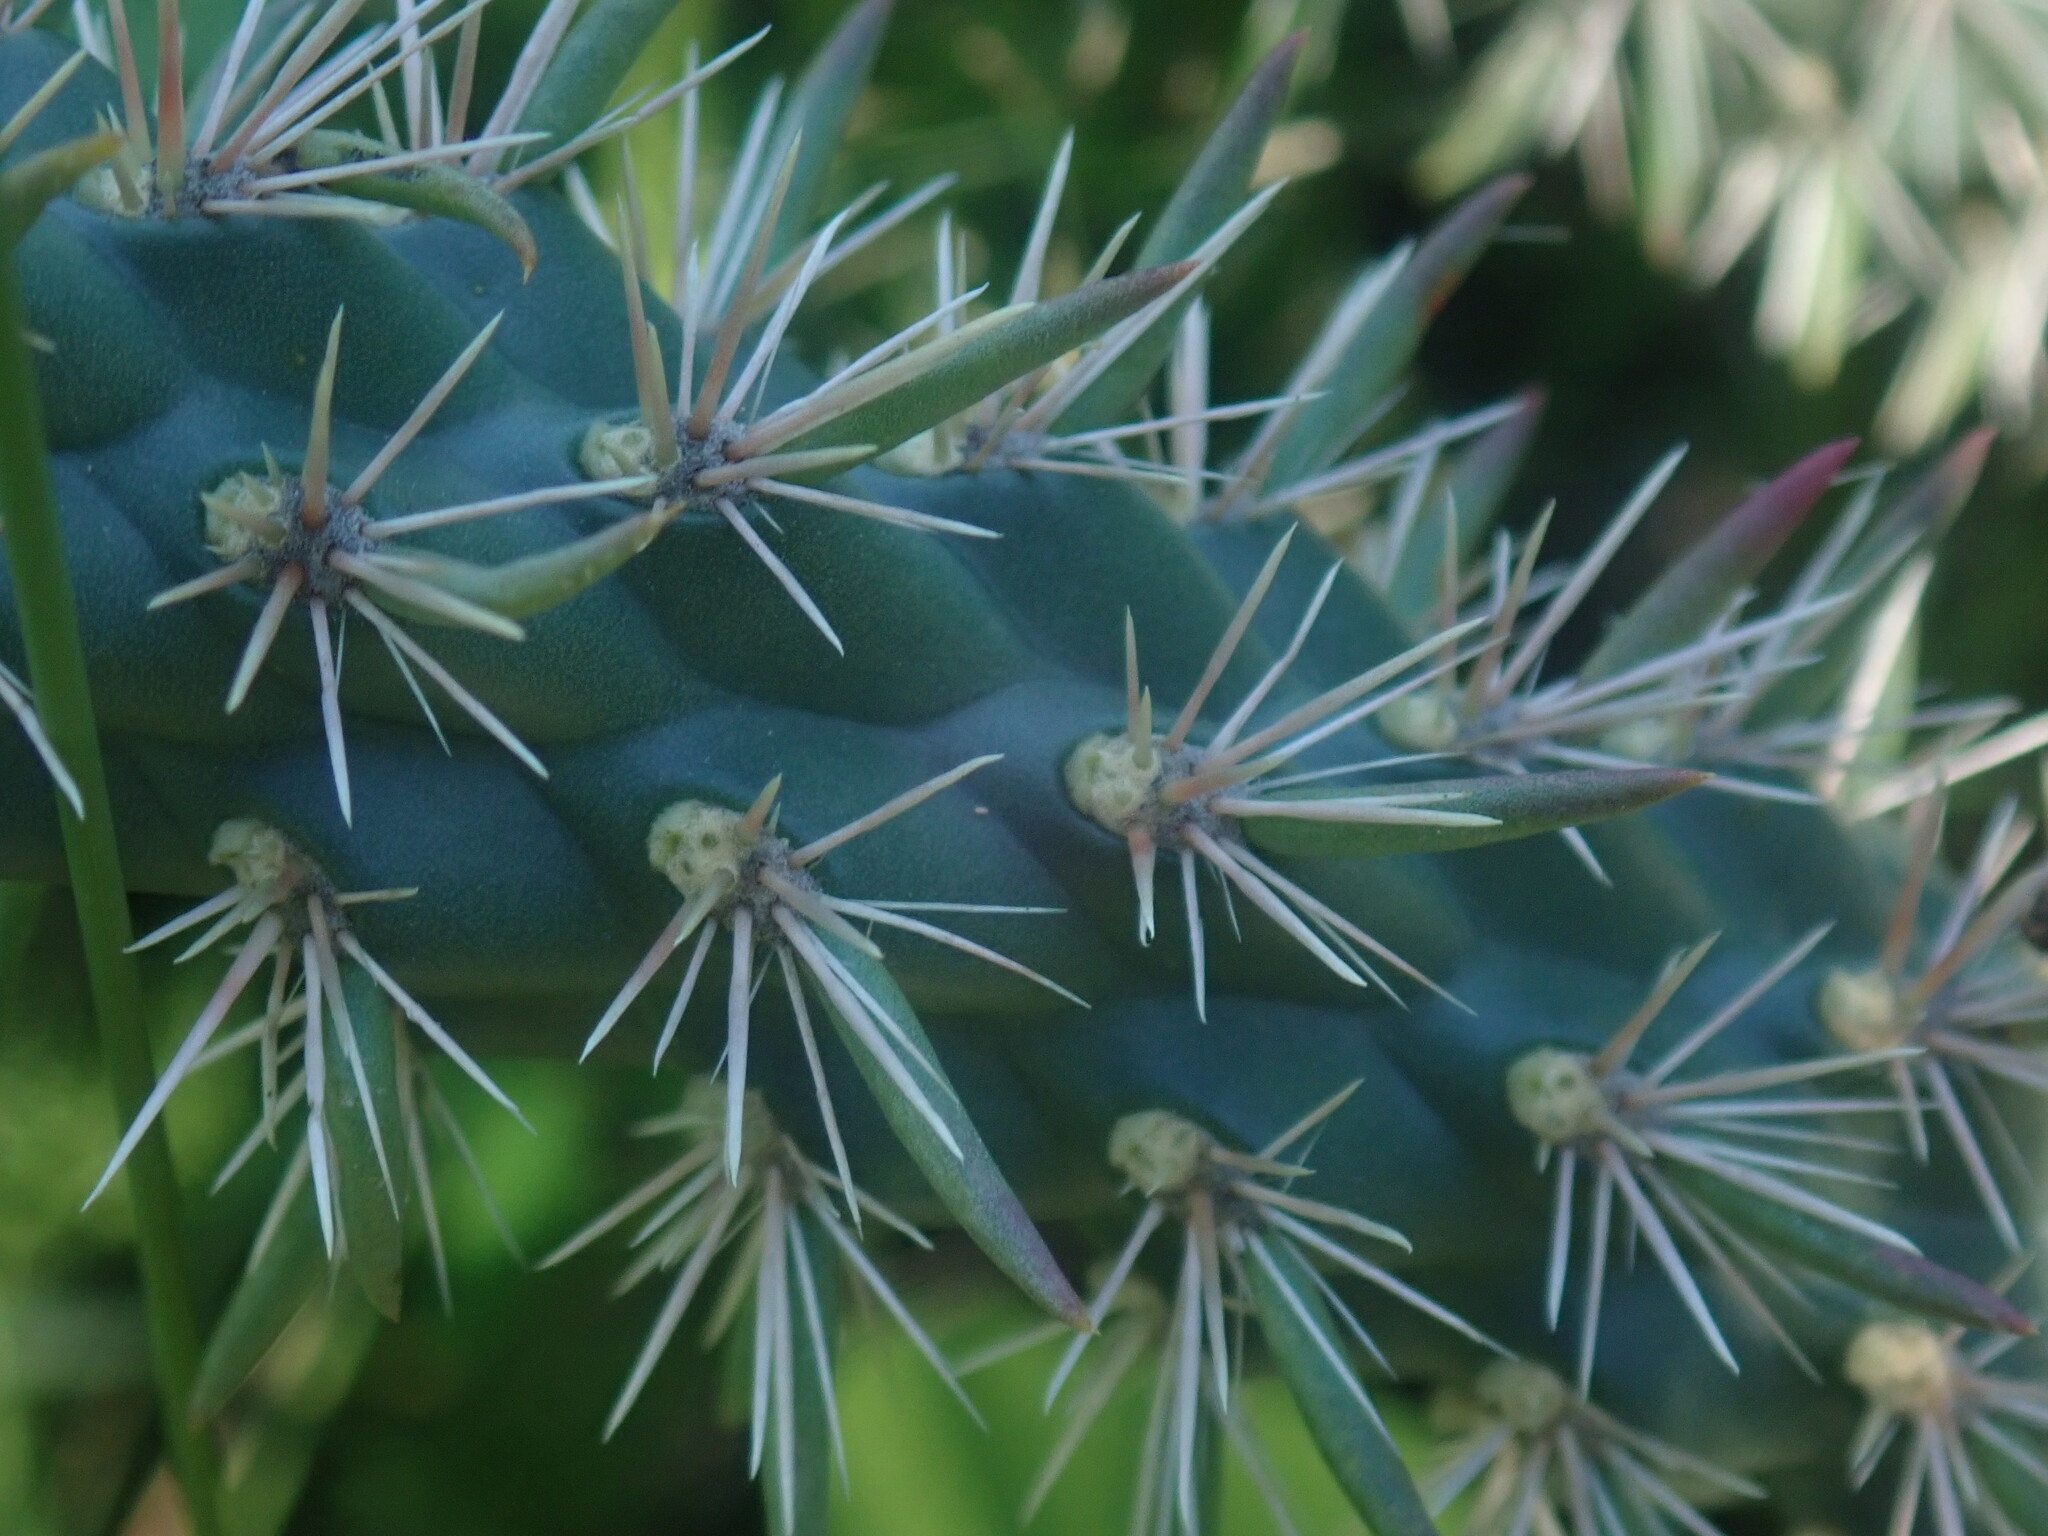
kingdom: Plantae
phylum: Tracheophyta
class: Magnoliopsida
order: Caryophyllales
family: Cactaceae
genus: Cylindropuntia
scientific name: Cylindropuntia imbricata
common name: Candelabrum cactus
